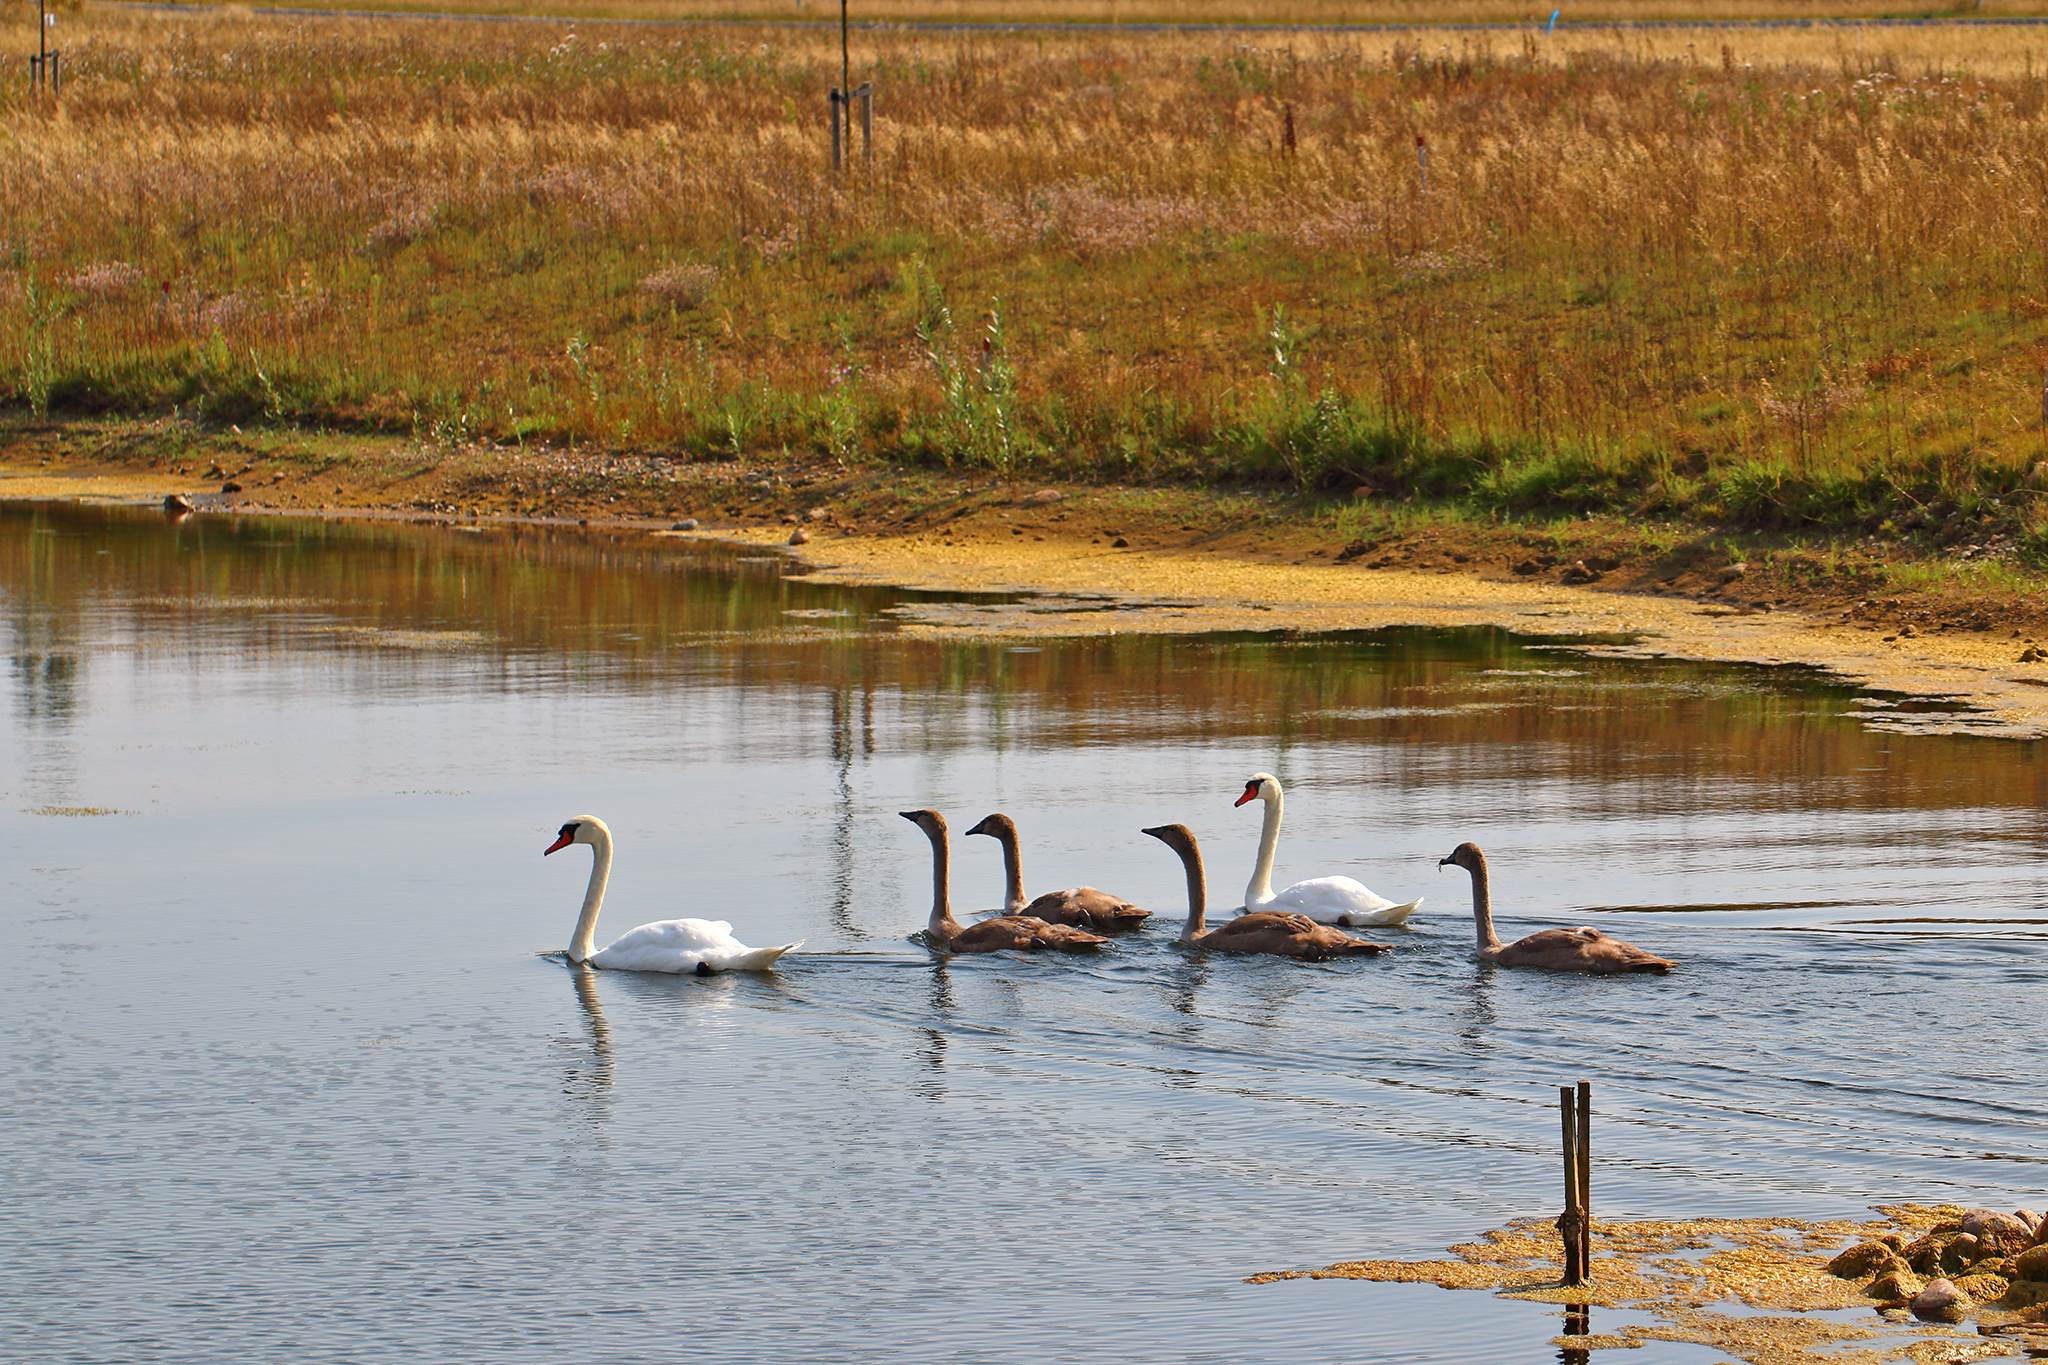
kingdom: Animalia
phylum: Chordata
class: Aves
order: Anseriformes
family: Anatidae
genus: Cygnus
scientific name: Cygnus olor
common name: Mute swan
